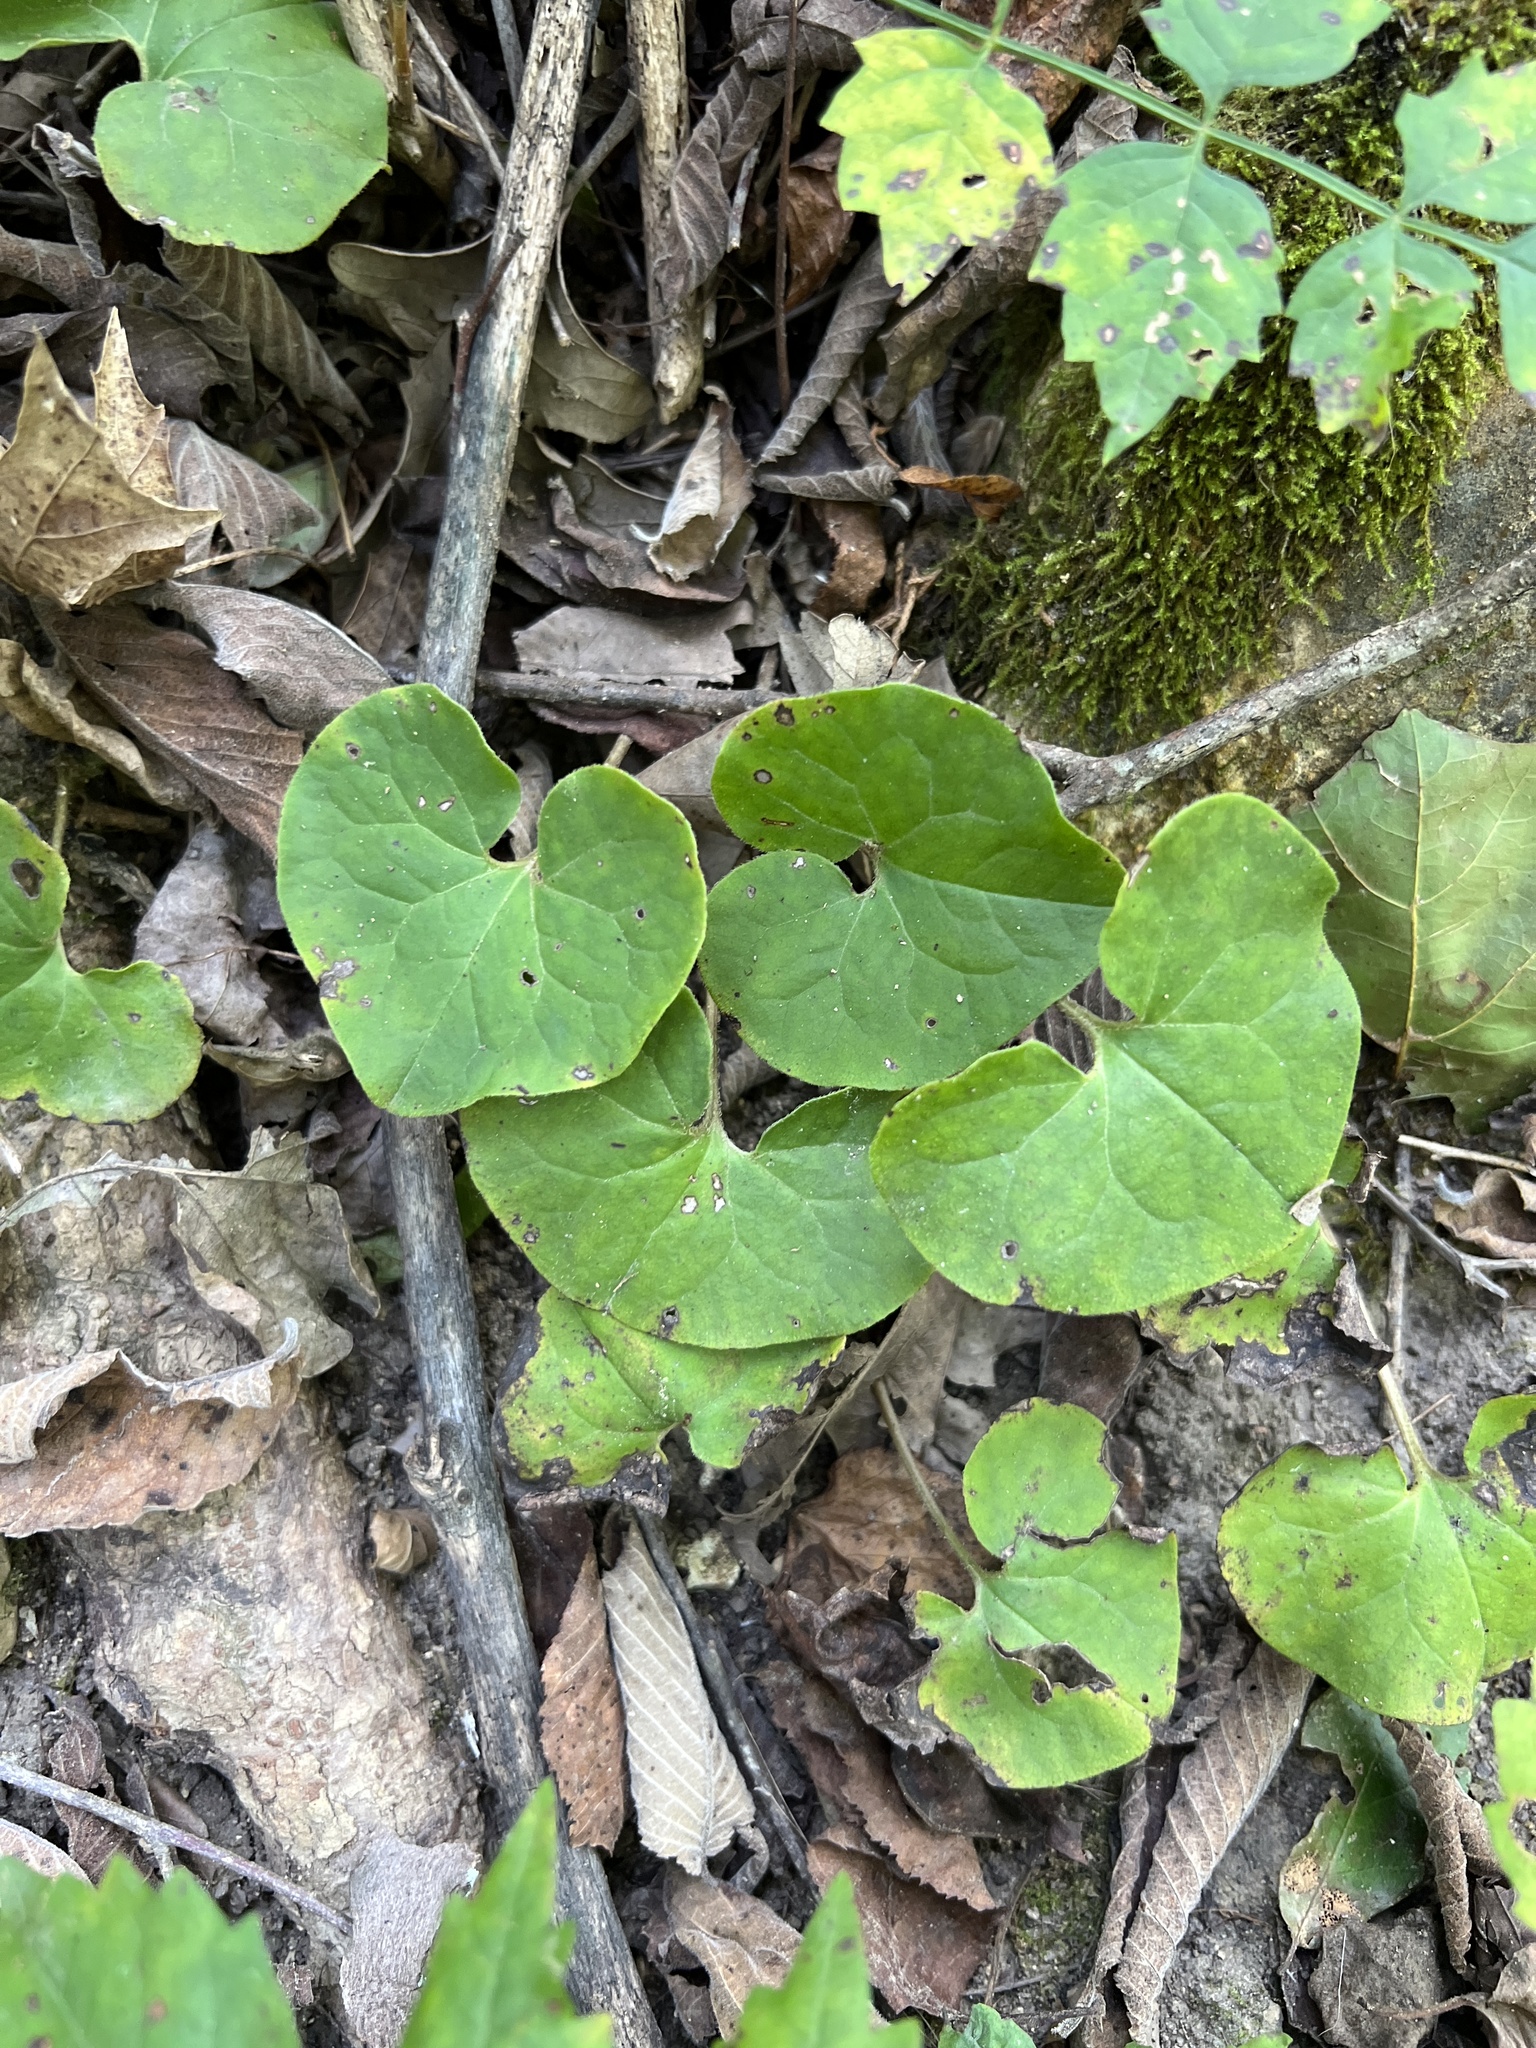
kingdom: Plantae
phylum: Tracheophyta
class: Magnoliopsida
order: Piperales
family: Aristolochiaceae
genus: Asarum
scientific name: Asarum canadense
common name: Wild ginger
